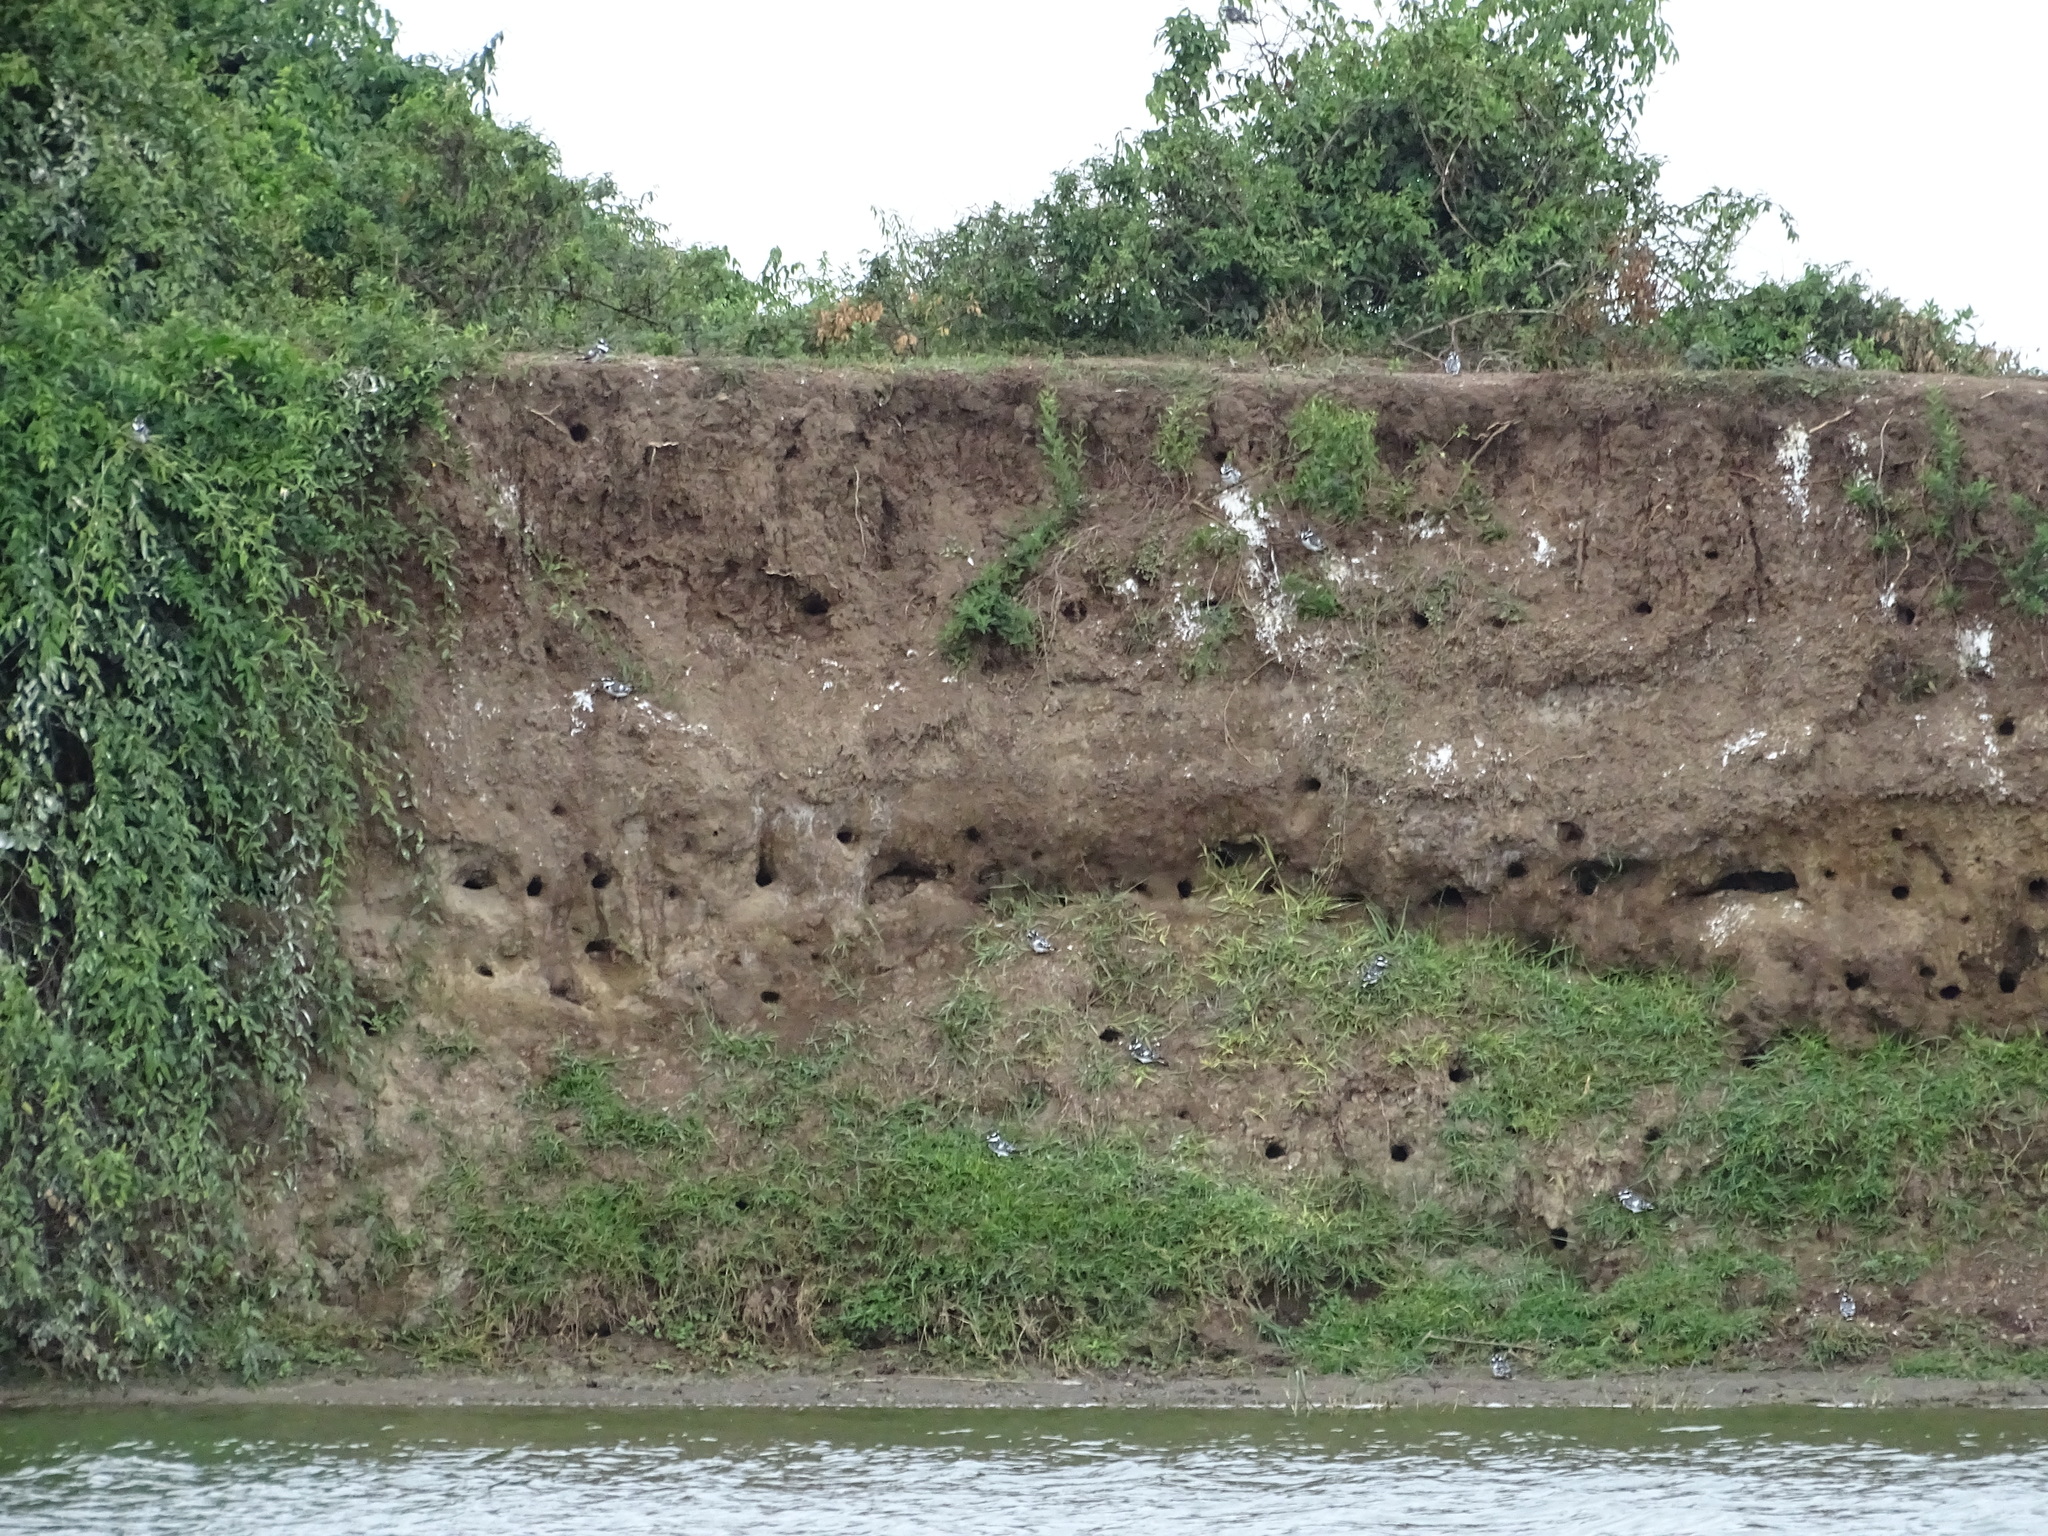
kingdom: Animalia
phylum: Chordata
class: Aves
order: Coraciiformes
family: Alcedinidae
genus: Ceryle
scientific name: Ceryle rudis
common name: Pied kingfisher
